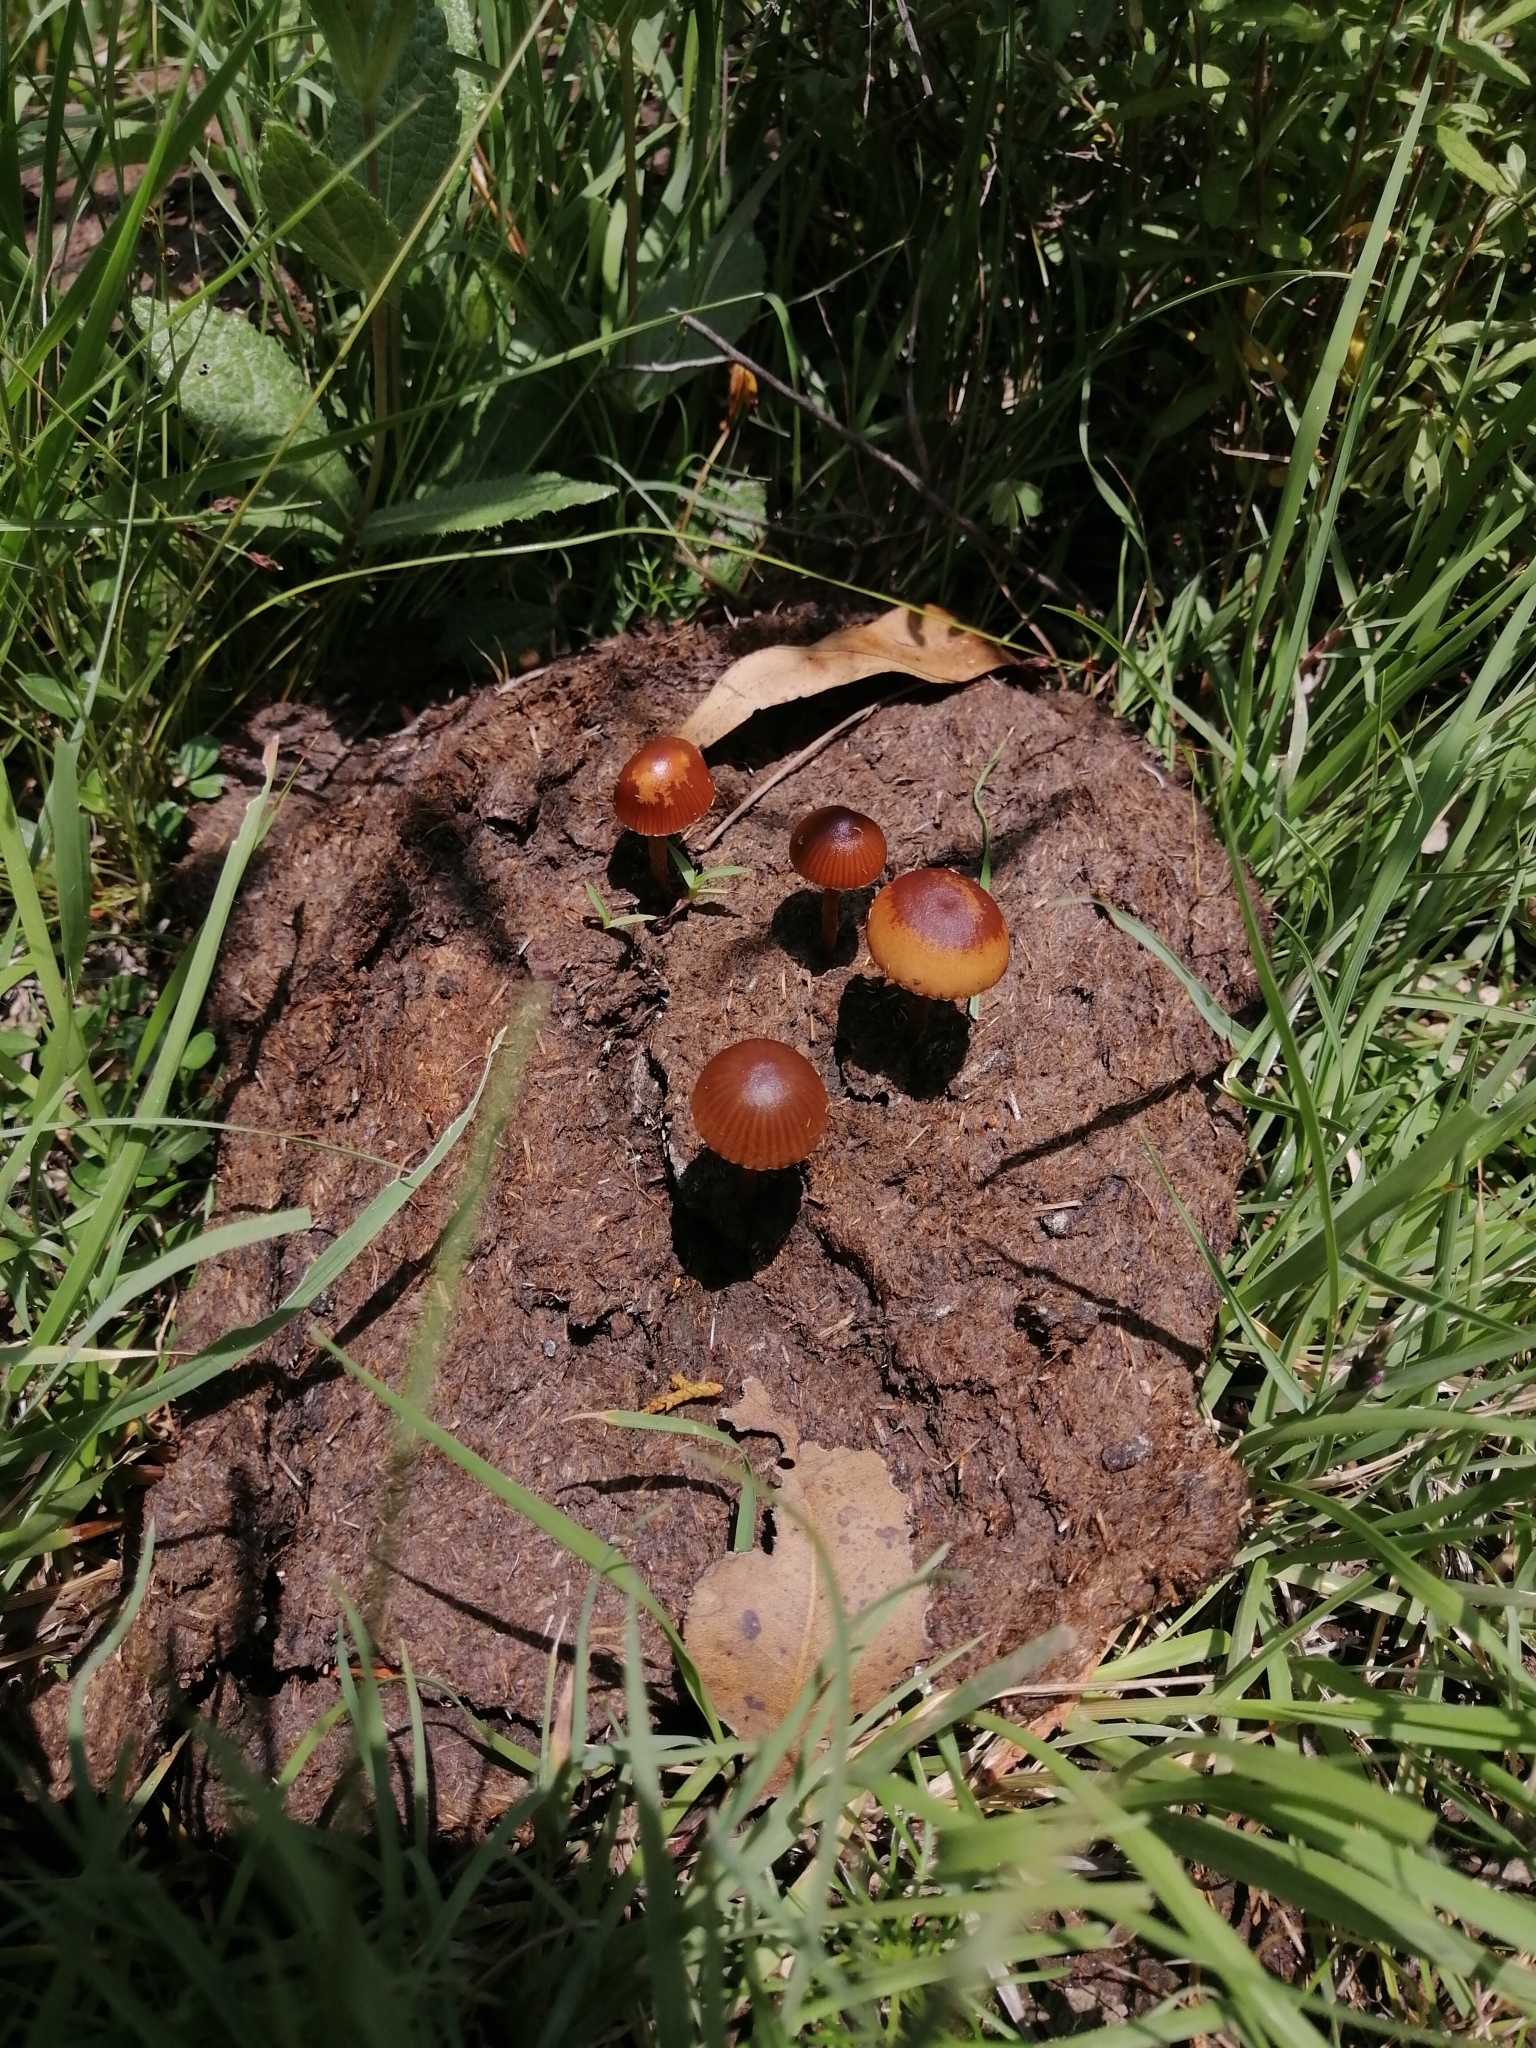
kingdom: Fungi
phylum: Basidiomycota
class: Agaricomycetes
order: Agaricales
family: Strophariaceae
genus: Deconica
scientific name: Deconica coprophila
